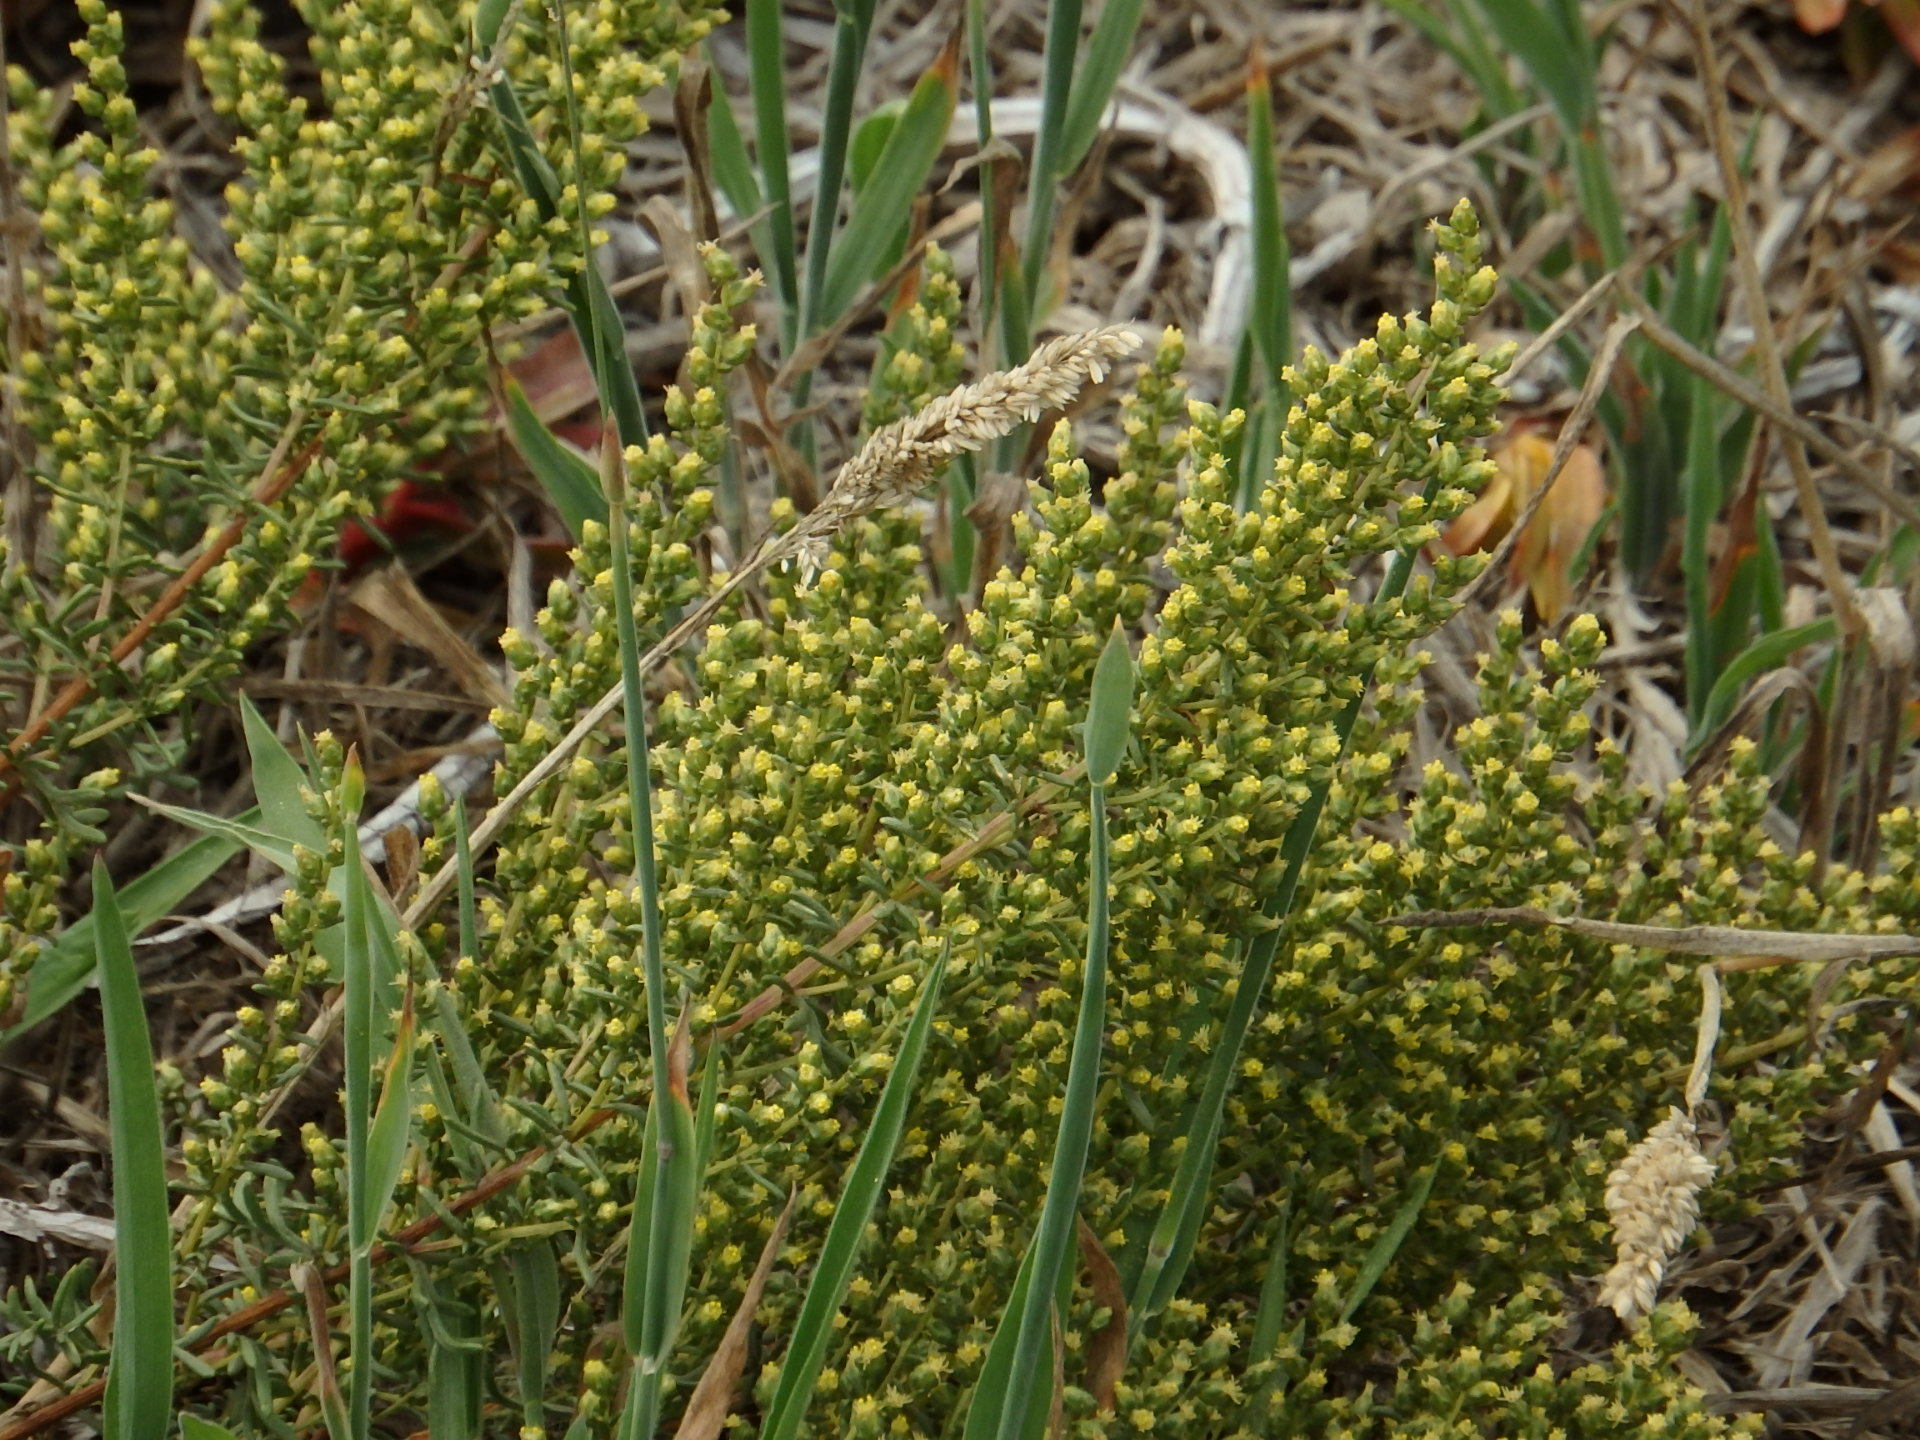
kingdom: Plantae
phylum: Tracheophyta
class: Magnoliopsida
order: Asterales
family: Asteraceae
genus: Artemisia
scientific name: Artemisia crithmifolia
